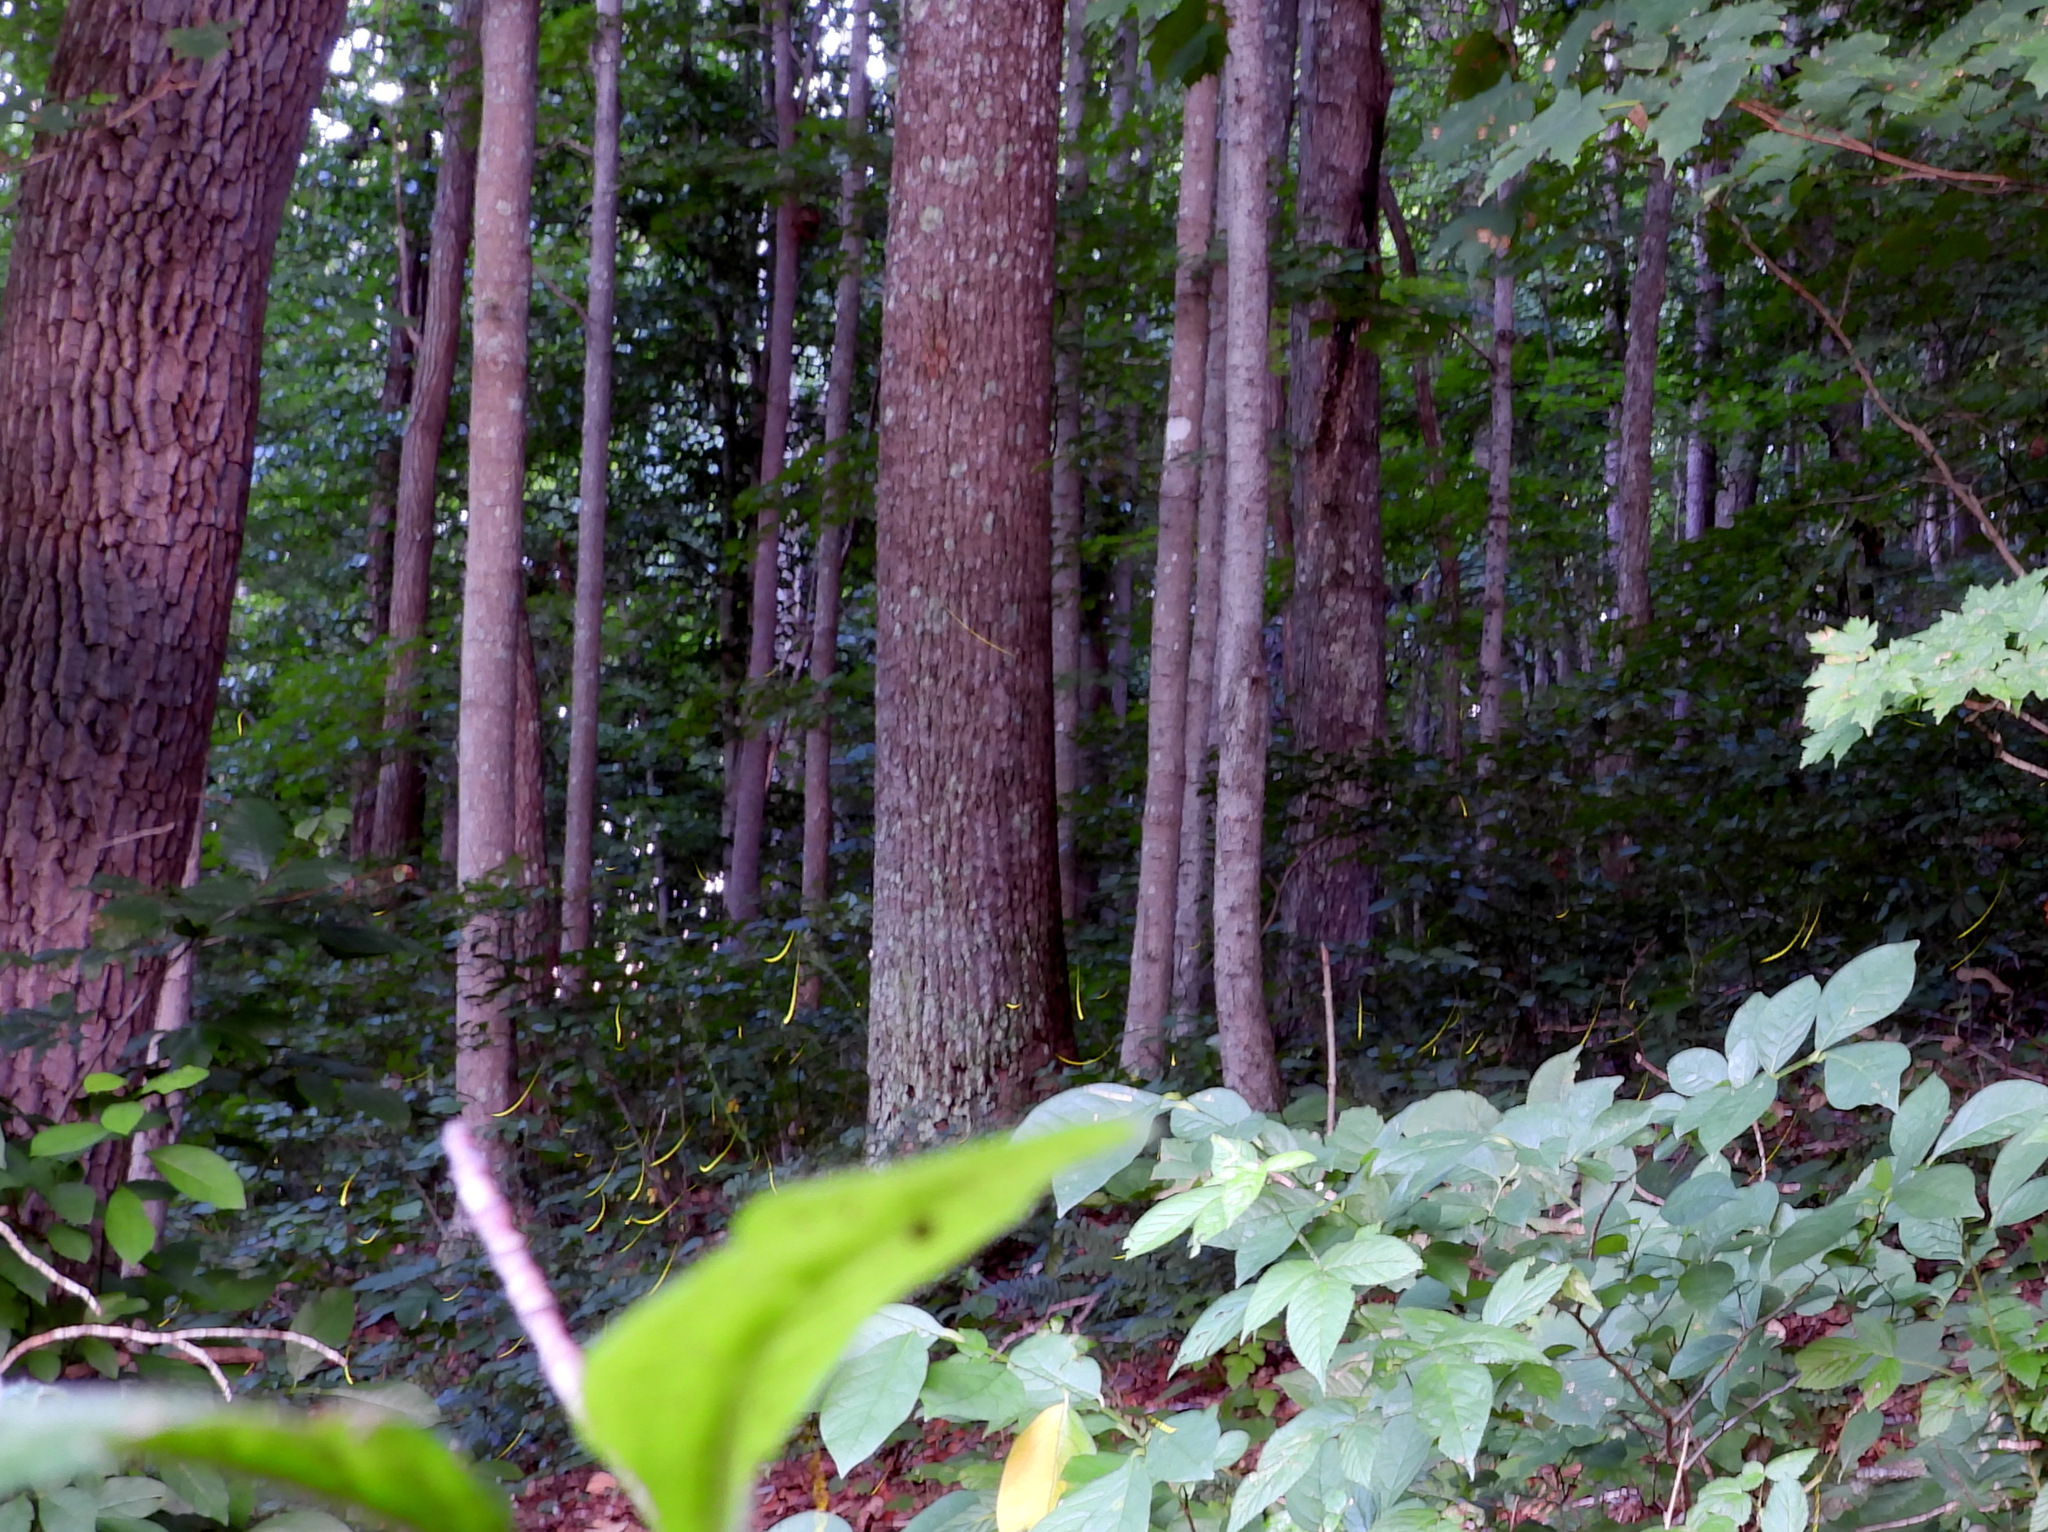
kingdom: Animalia
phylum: Arthropoda
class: Insecta
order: Coleoptera
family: Lampyridae
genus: Photinus
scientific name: Photinus pyralis
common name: Big dipper firefly
